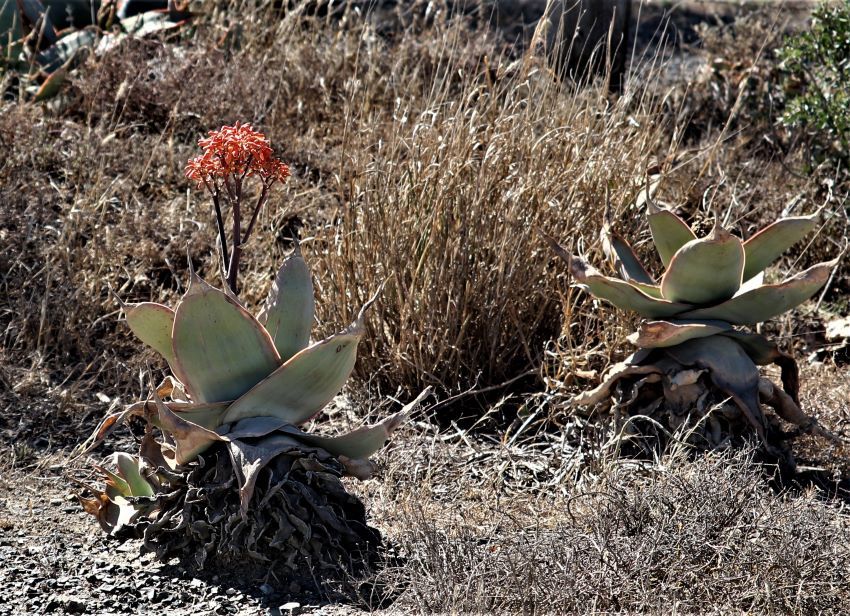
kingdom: Plantae
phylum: Tracheophyta
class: Liliopsida
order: Asparagales
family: Asphodelaceae
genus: Aloe
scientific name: Aloe striata
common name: Coral aloe
